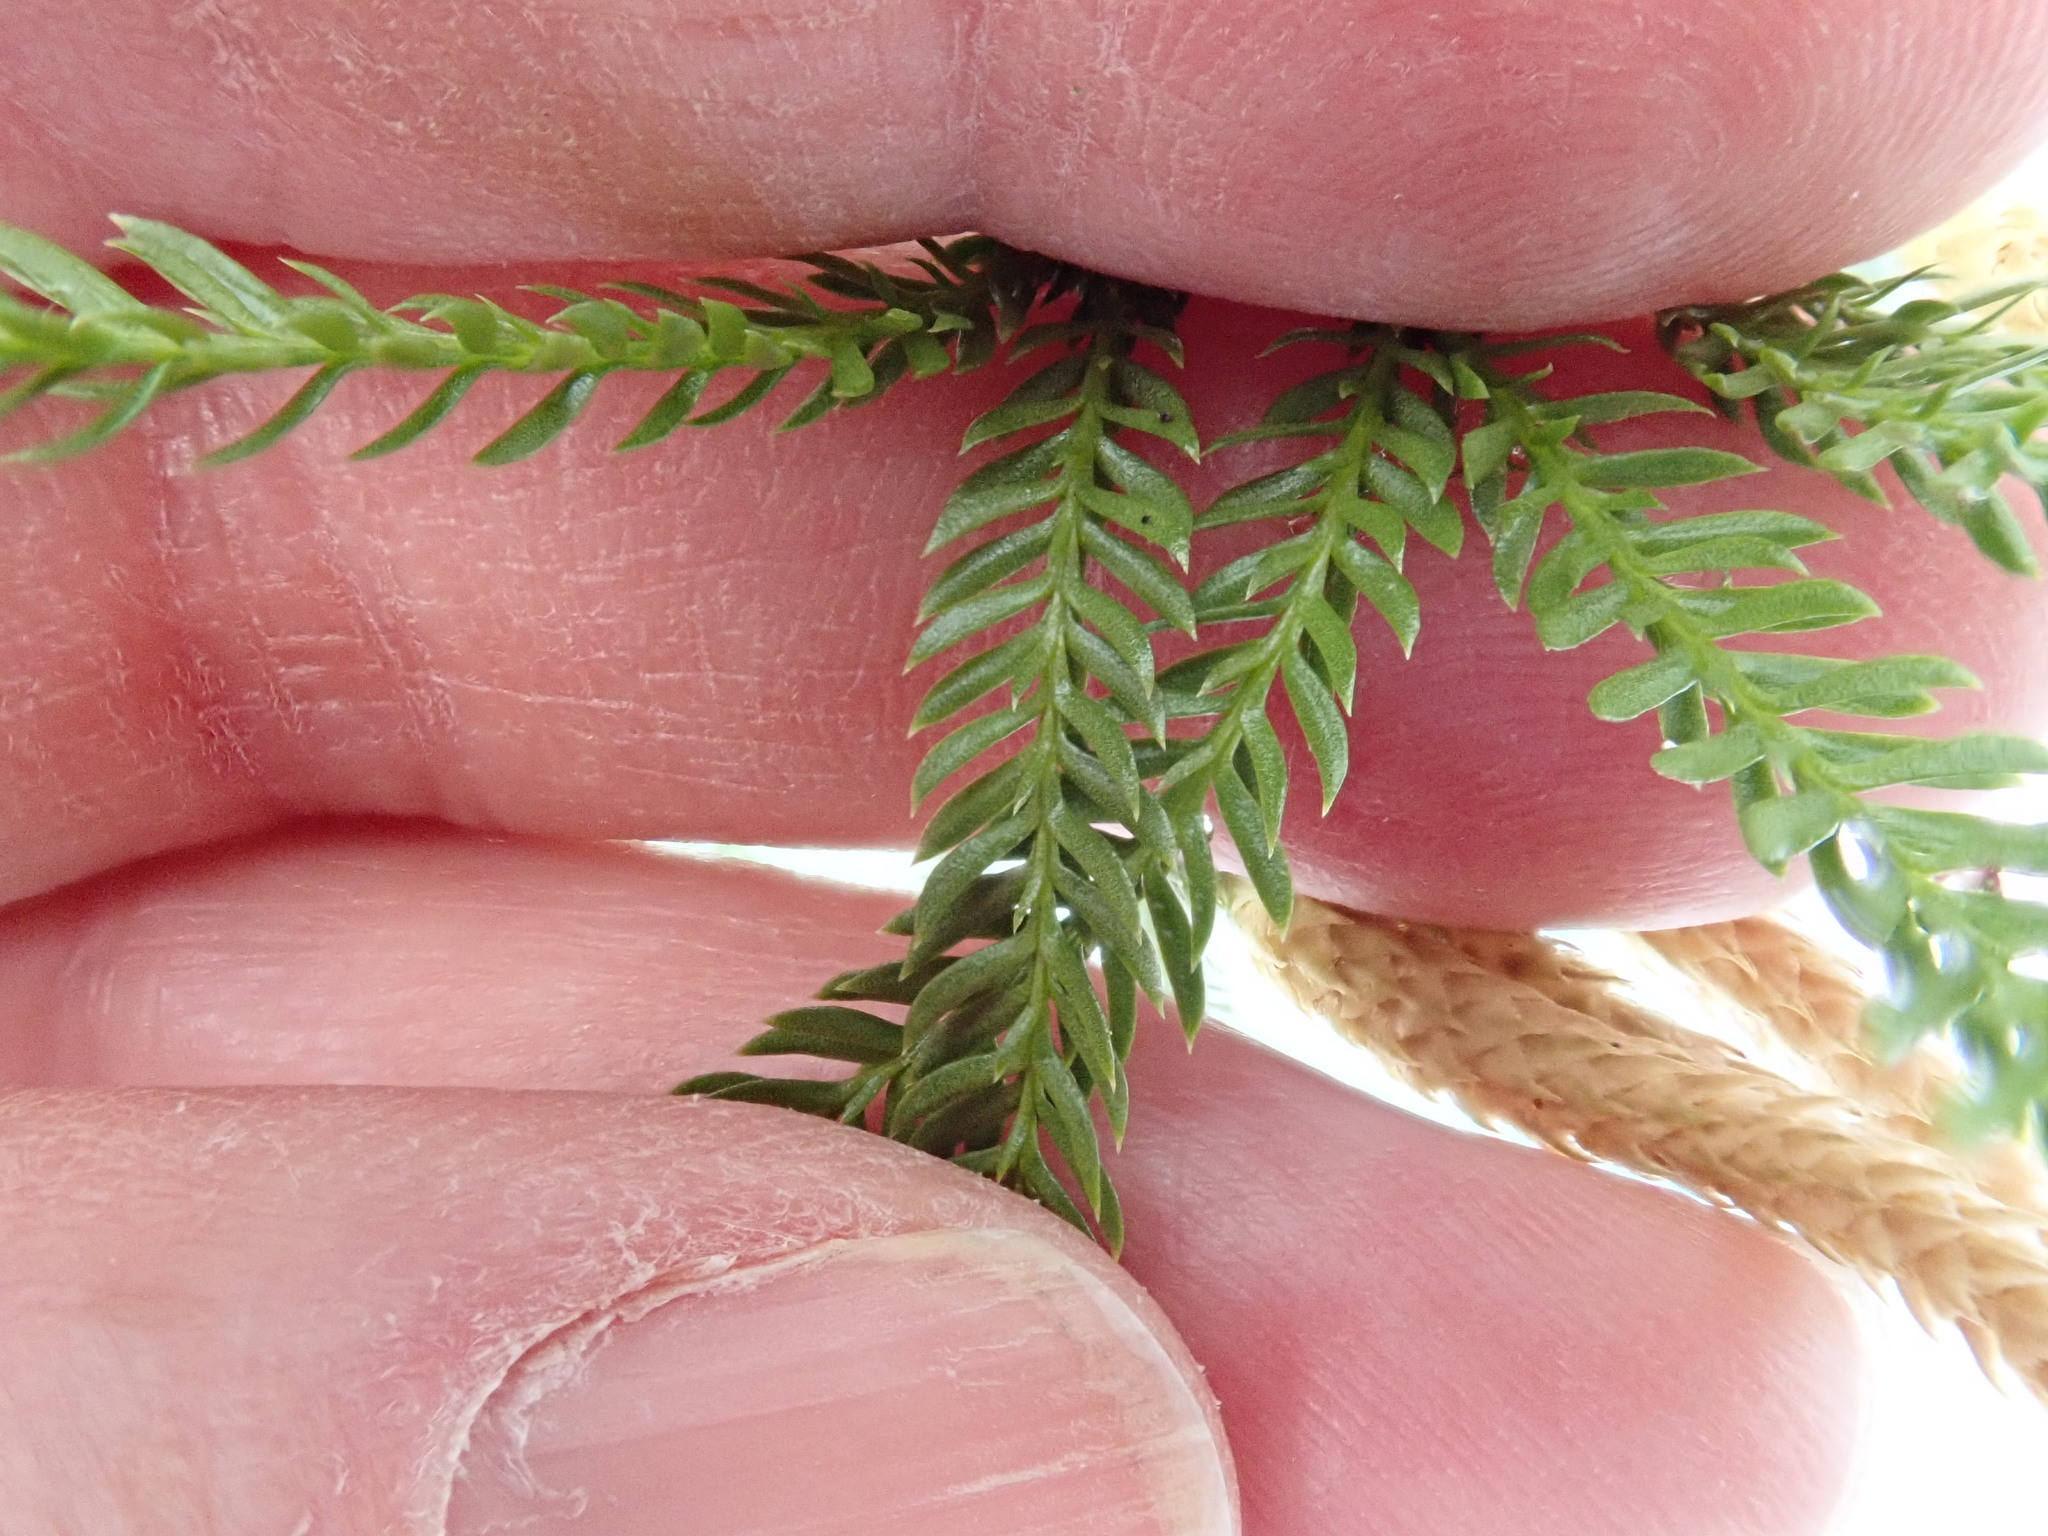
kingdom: Plantae
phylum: Tracheophyta
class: Lycopodiopsida
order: Lycopodiales
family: Lycopodiaceae
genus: Dendrolycopodium
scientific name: Dendrolycopodium obscurum
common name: Common ground-pine
